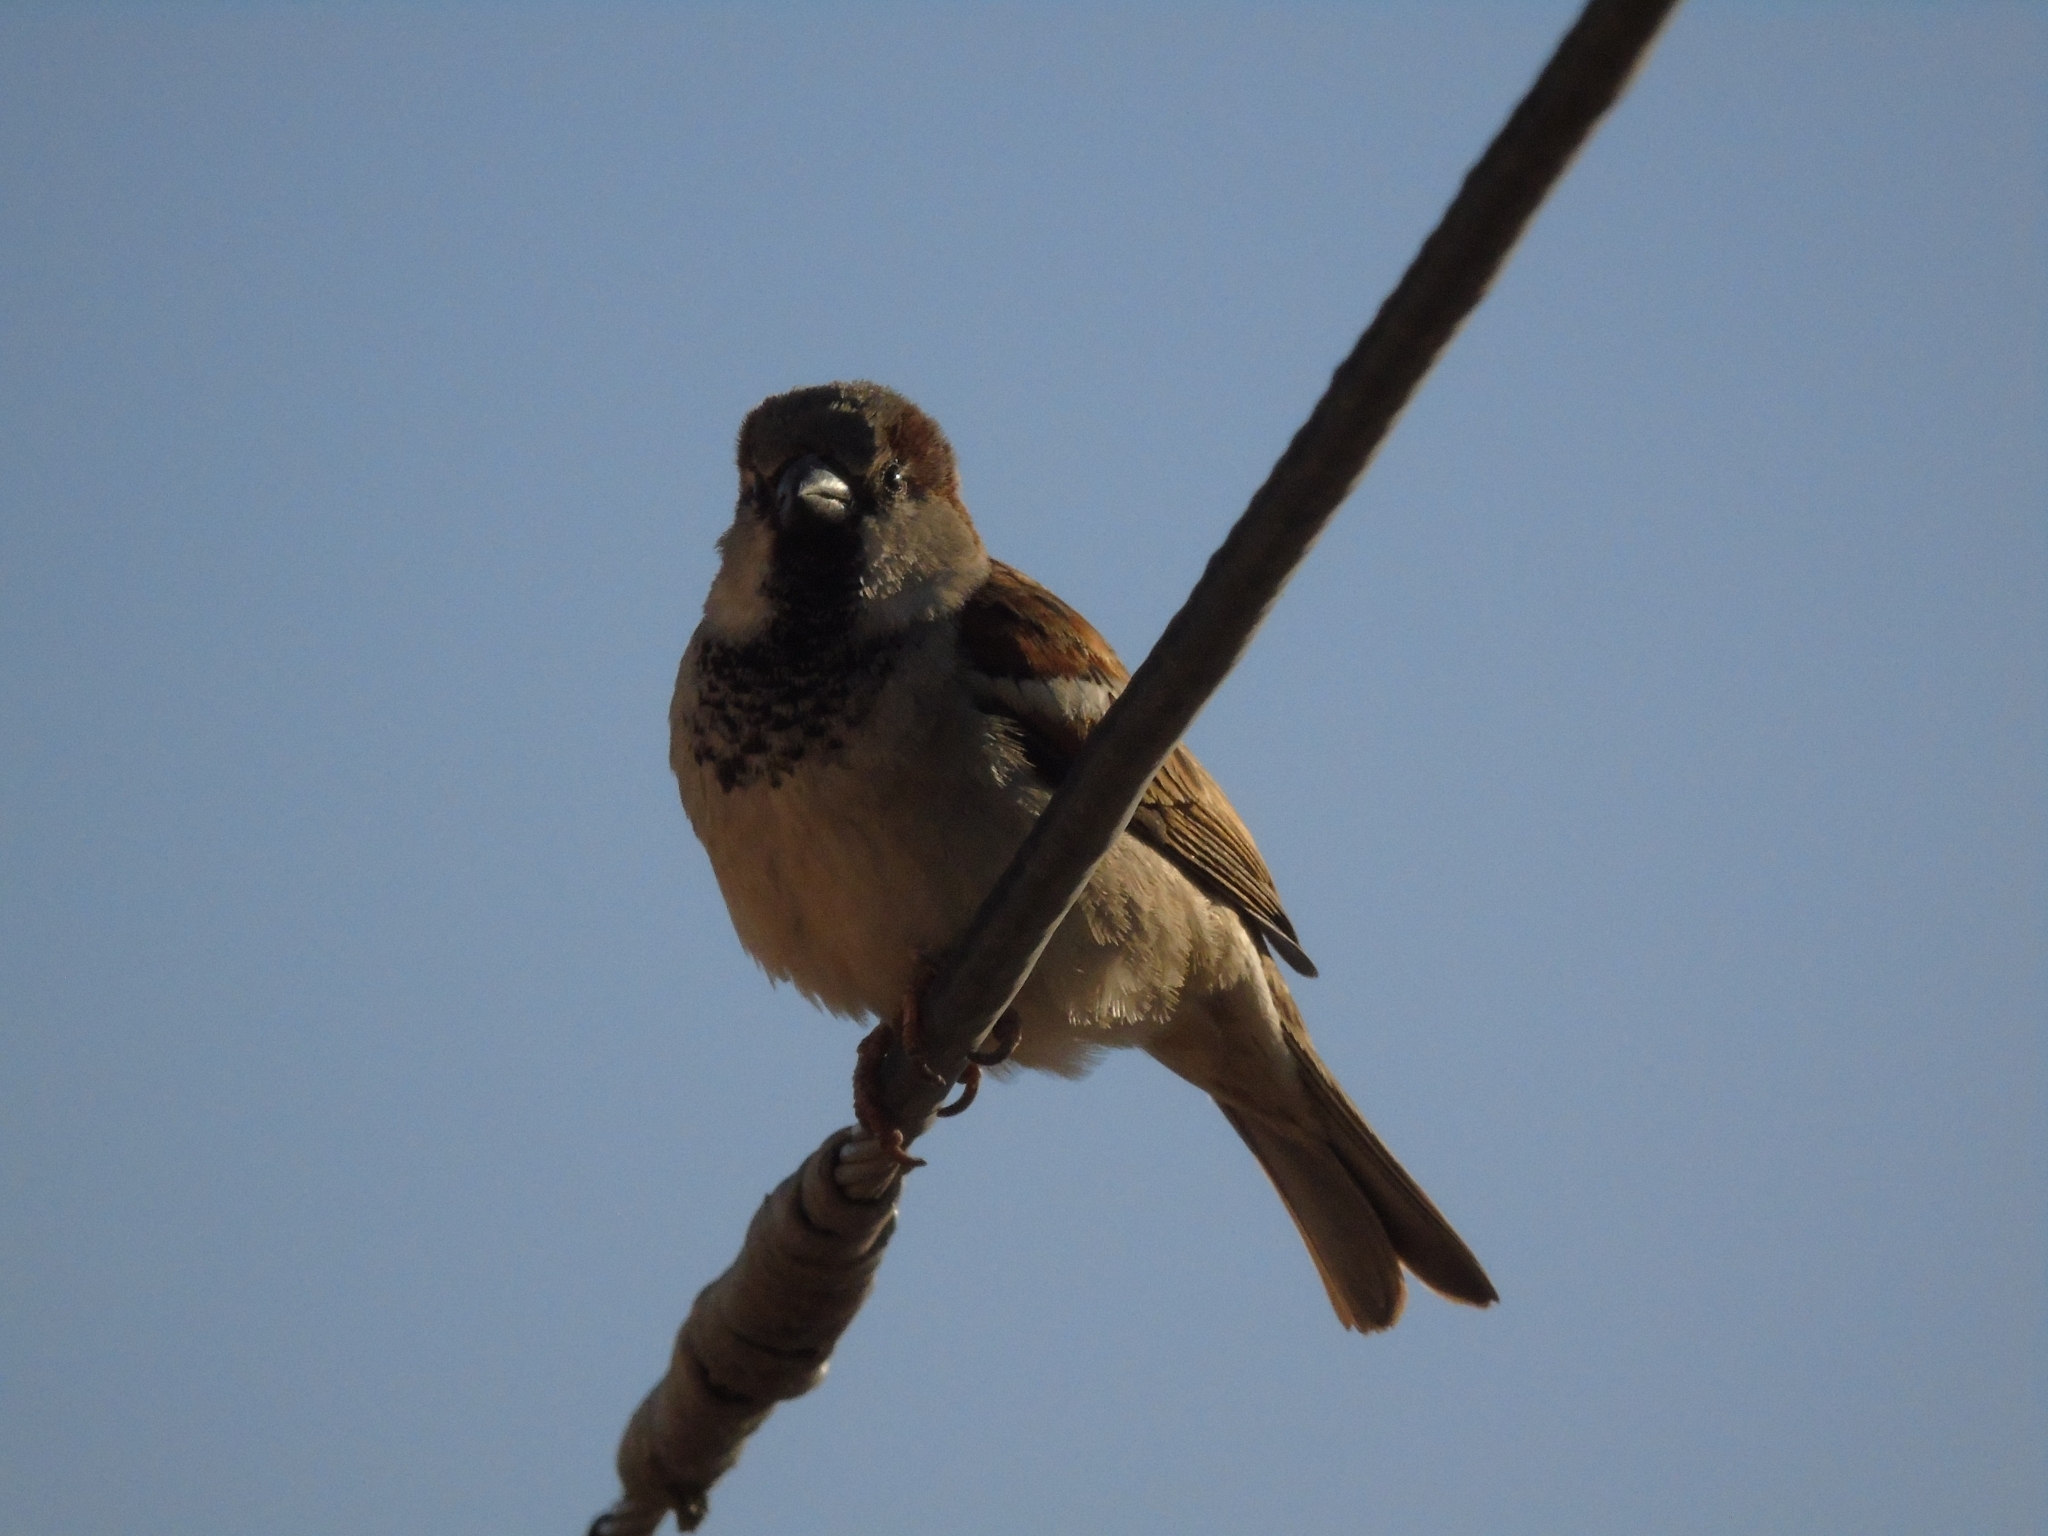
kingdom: Animalia
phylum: Chordata
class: Aves
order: Passeriformes
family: Passeridae
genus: Passer
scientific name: Passer domesticus
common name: House sparrow
